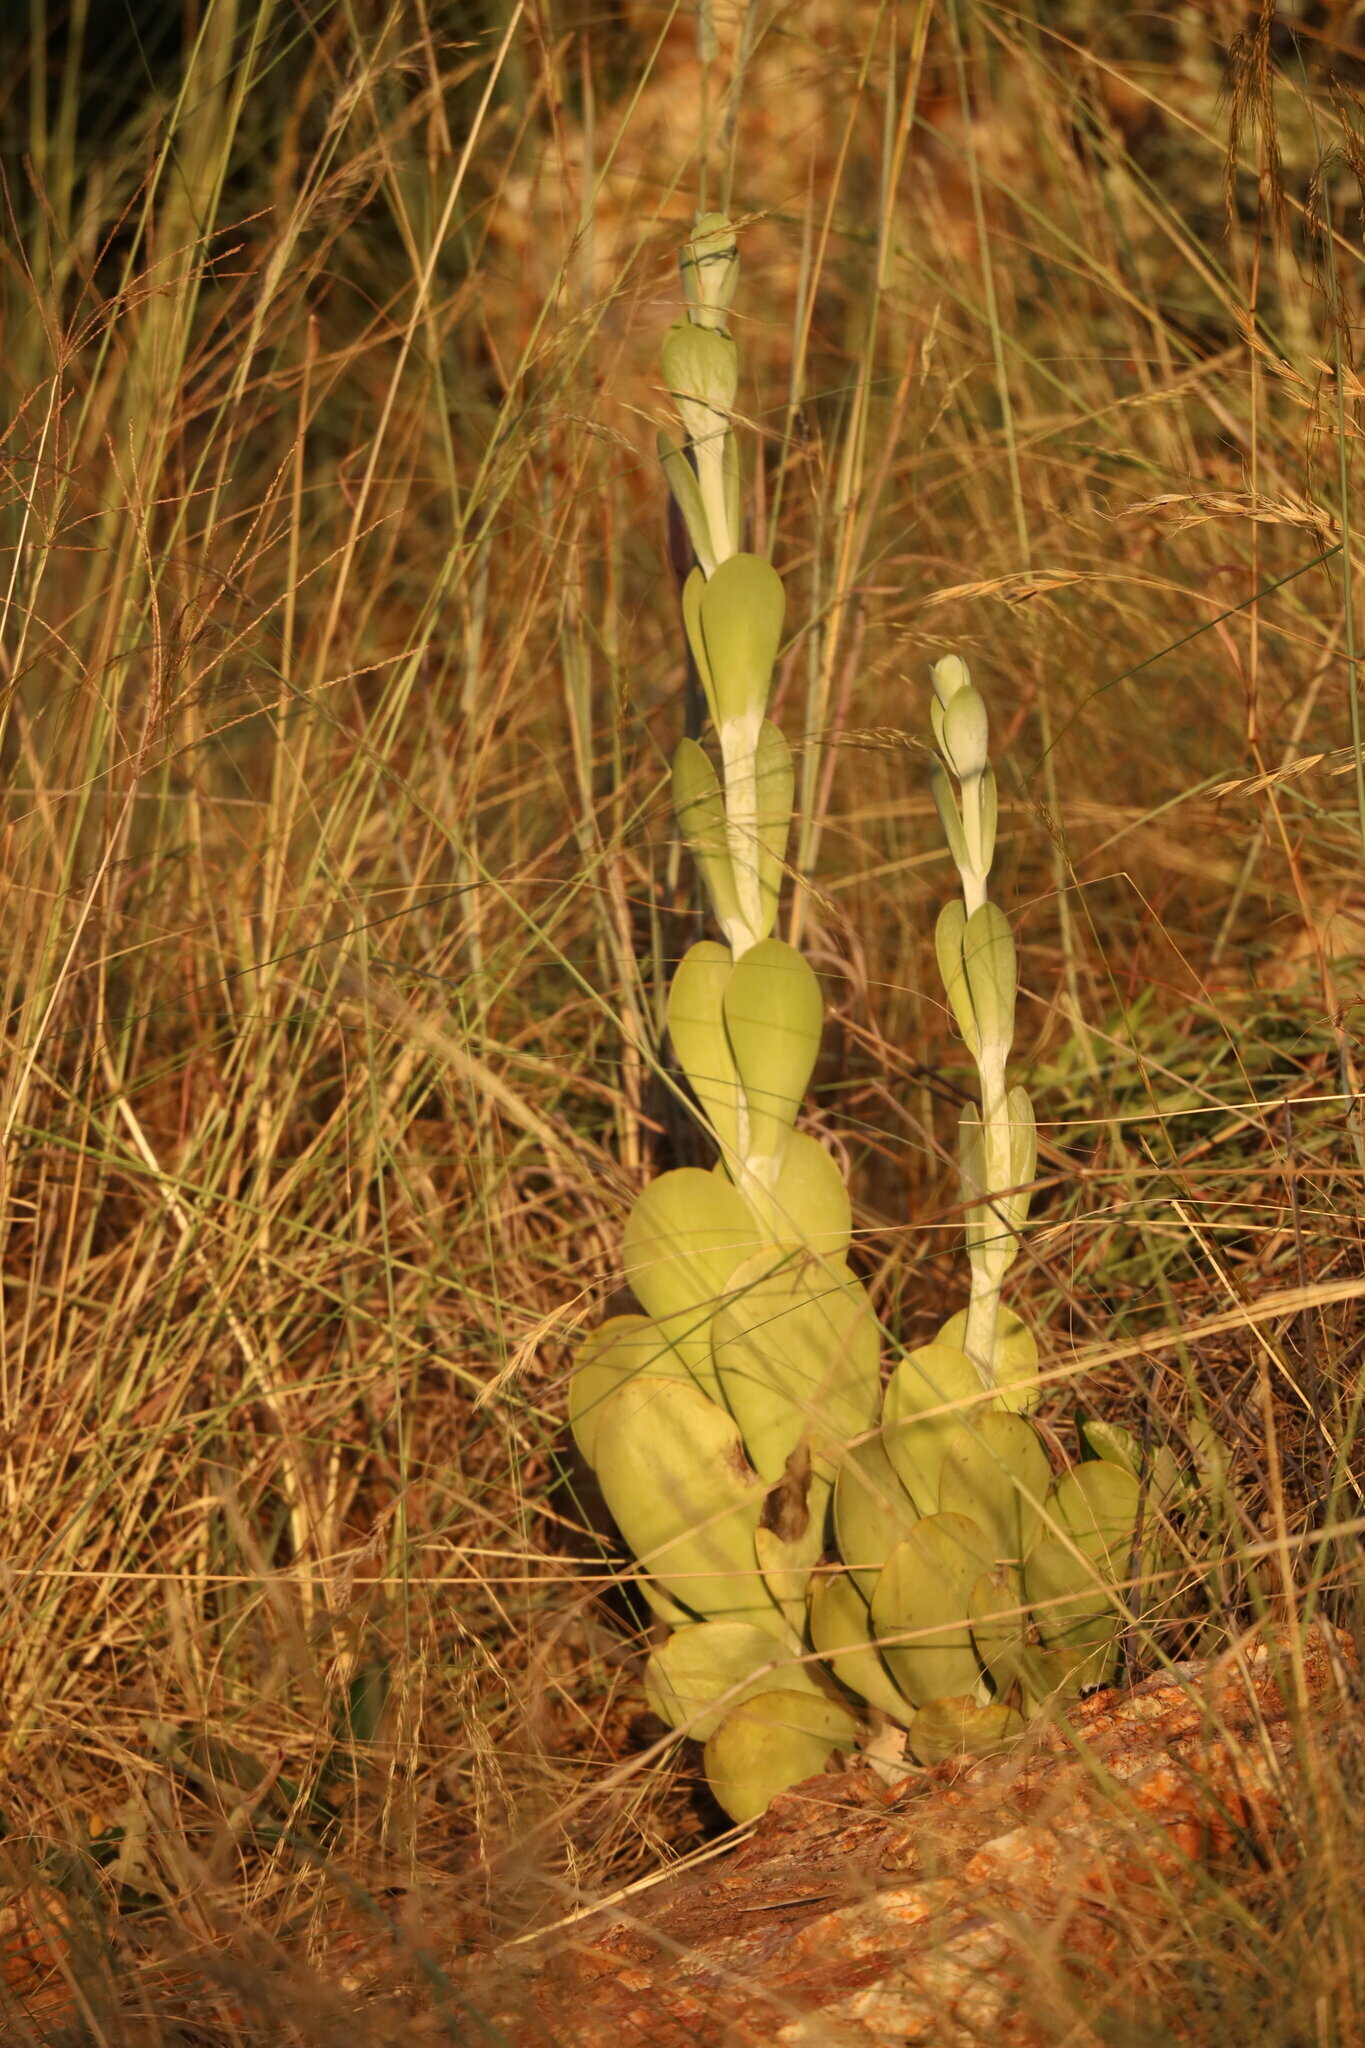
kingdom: Plantae
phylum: Tracheophyta
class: Magnoliopsida
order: Saxifragales
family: Crassulaceae
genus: Kalanchoe
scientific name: Kalanchoe thyrsiflora
